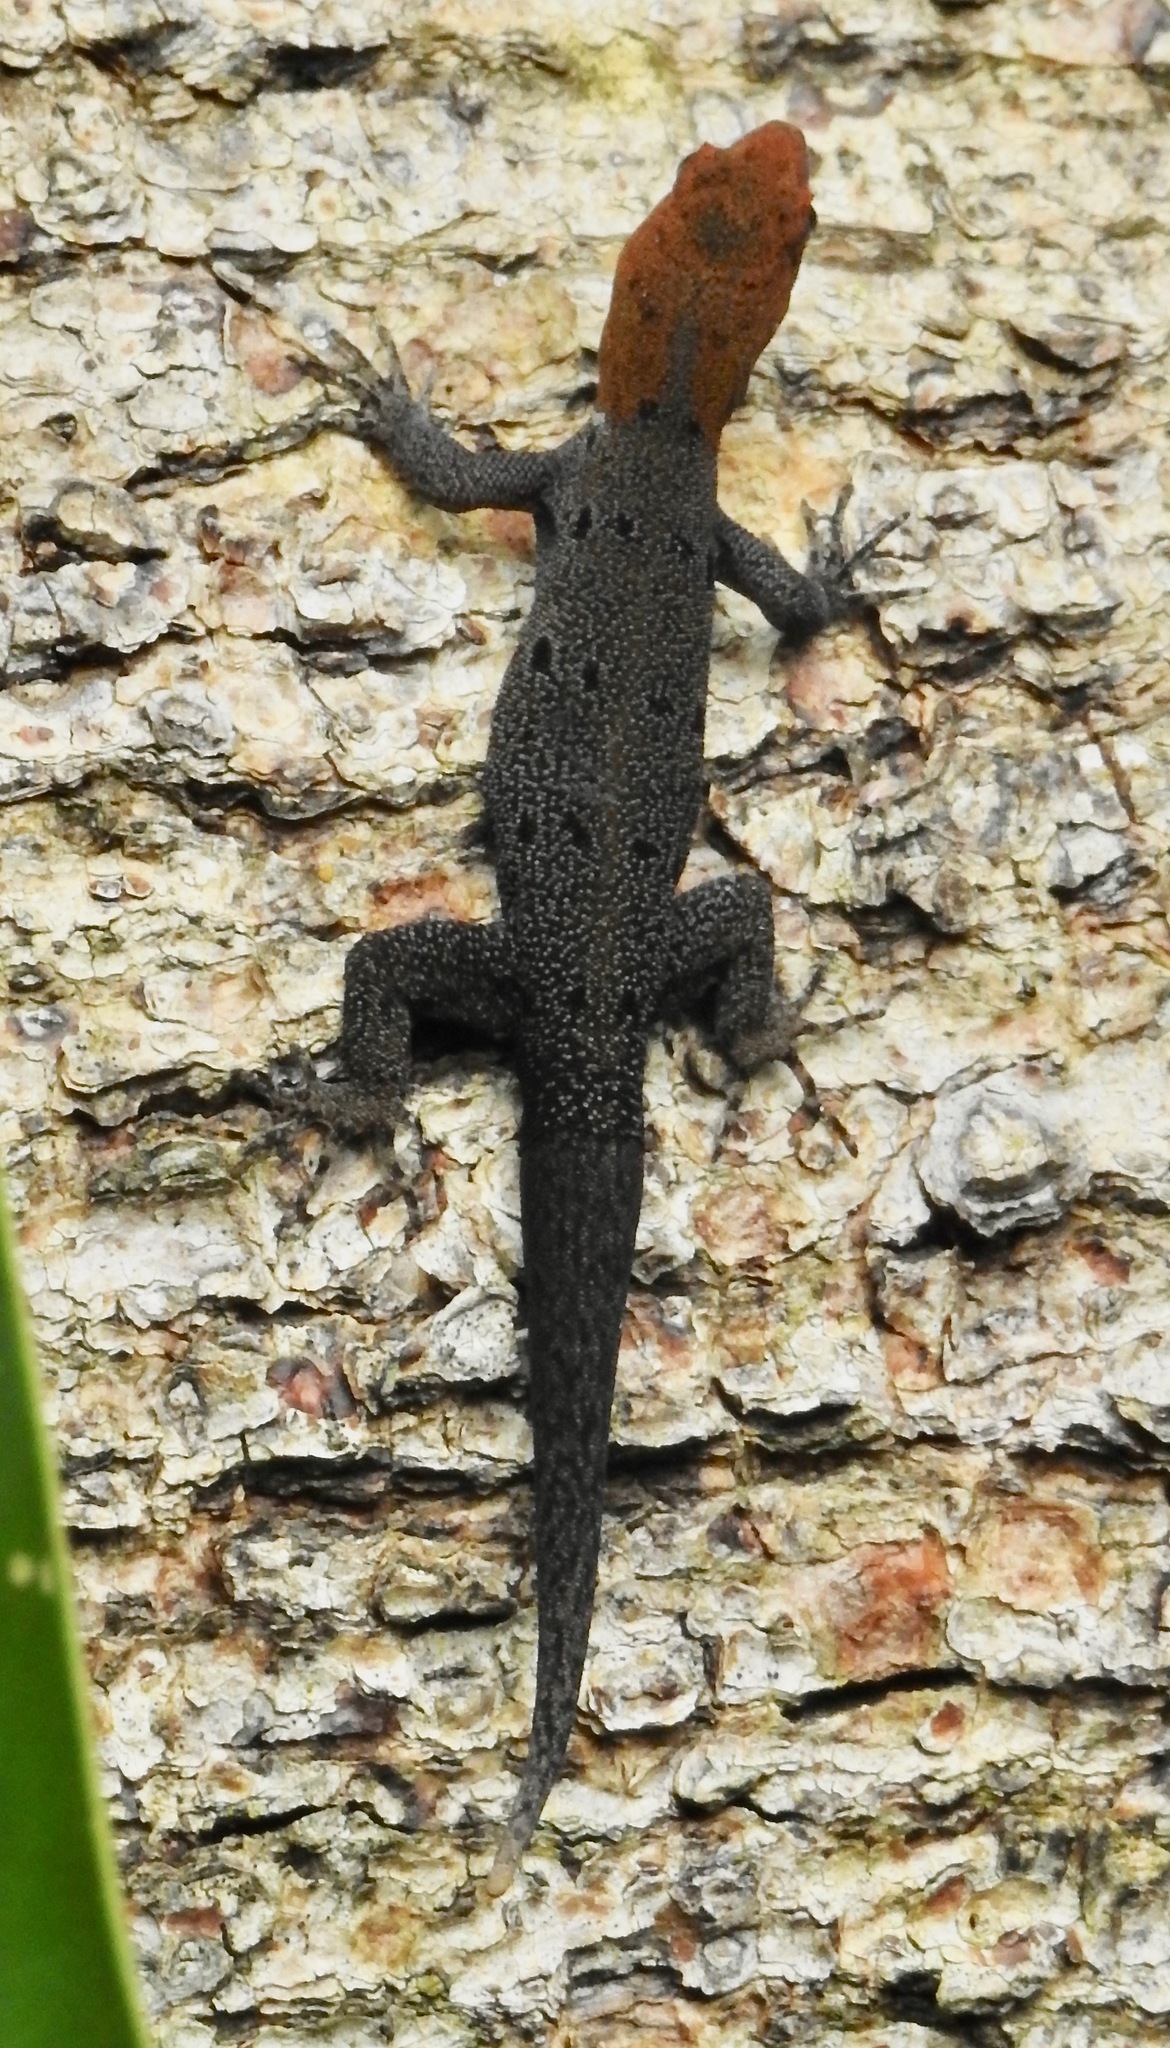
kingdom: Animalia
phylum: Chordata
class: Squamata
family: Sphaerodactylidae
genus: Gonatodes
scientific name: Gonatodes albogularis
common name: Yellow-headed gecko
